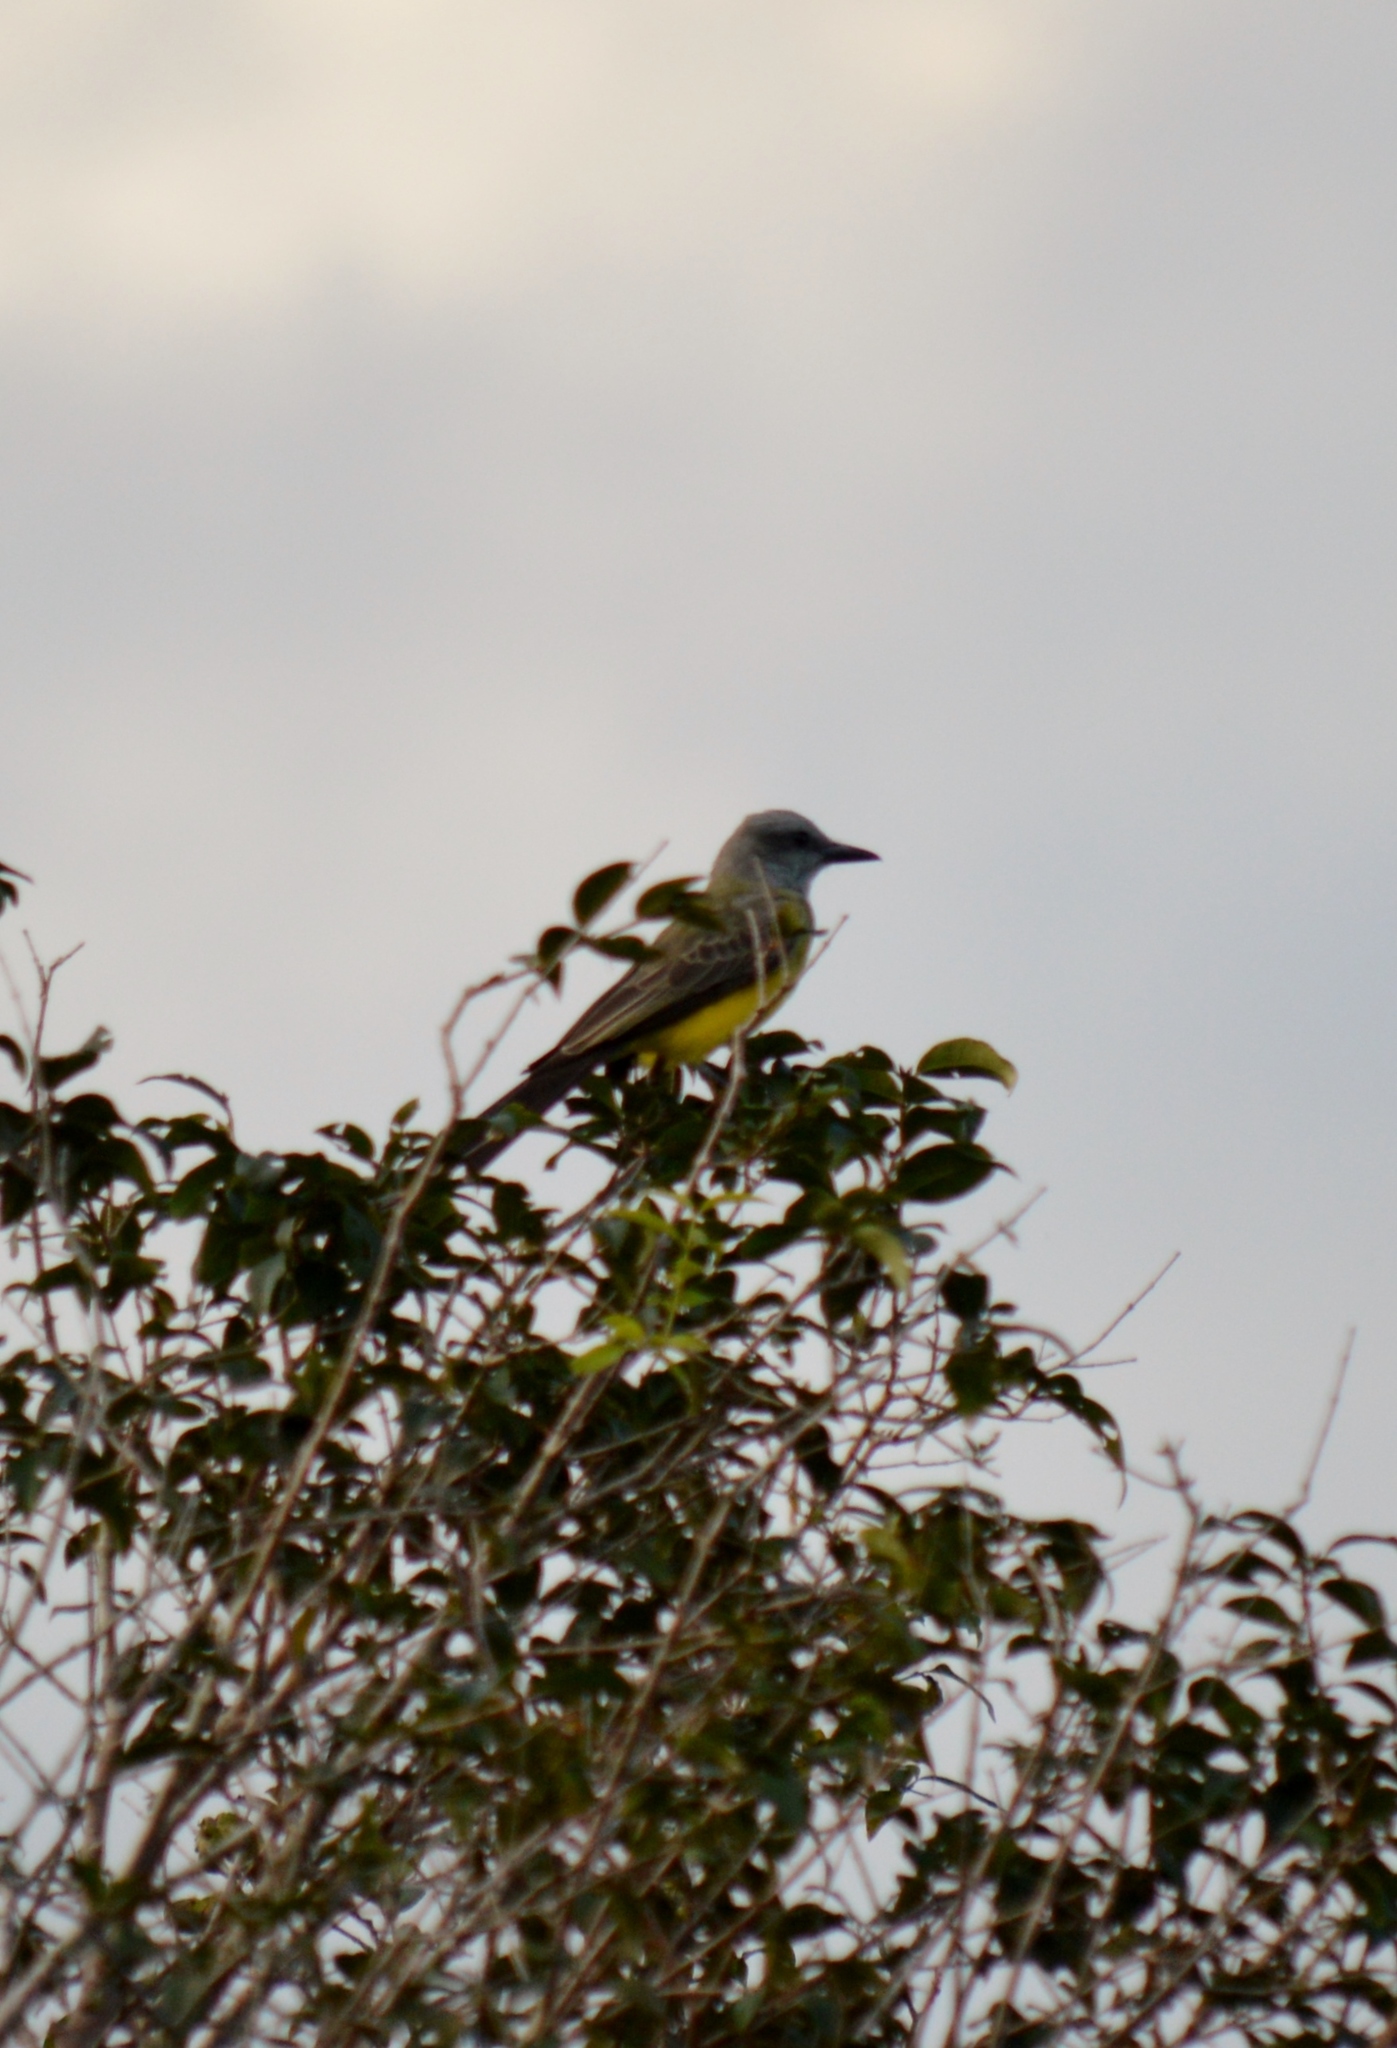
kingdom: Animalia
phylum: Chordata
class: Aves
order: Passeriformes
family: Tyrannidae
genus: Tyrannus
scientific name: Tyrannus melancholicus
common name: Tropical kingbird
